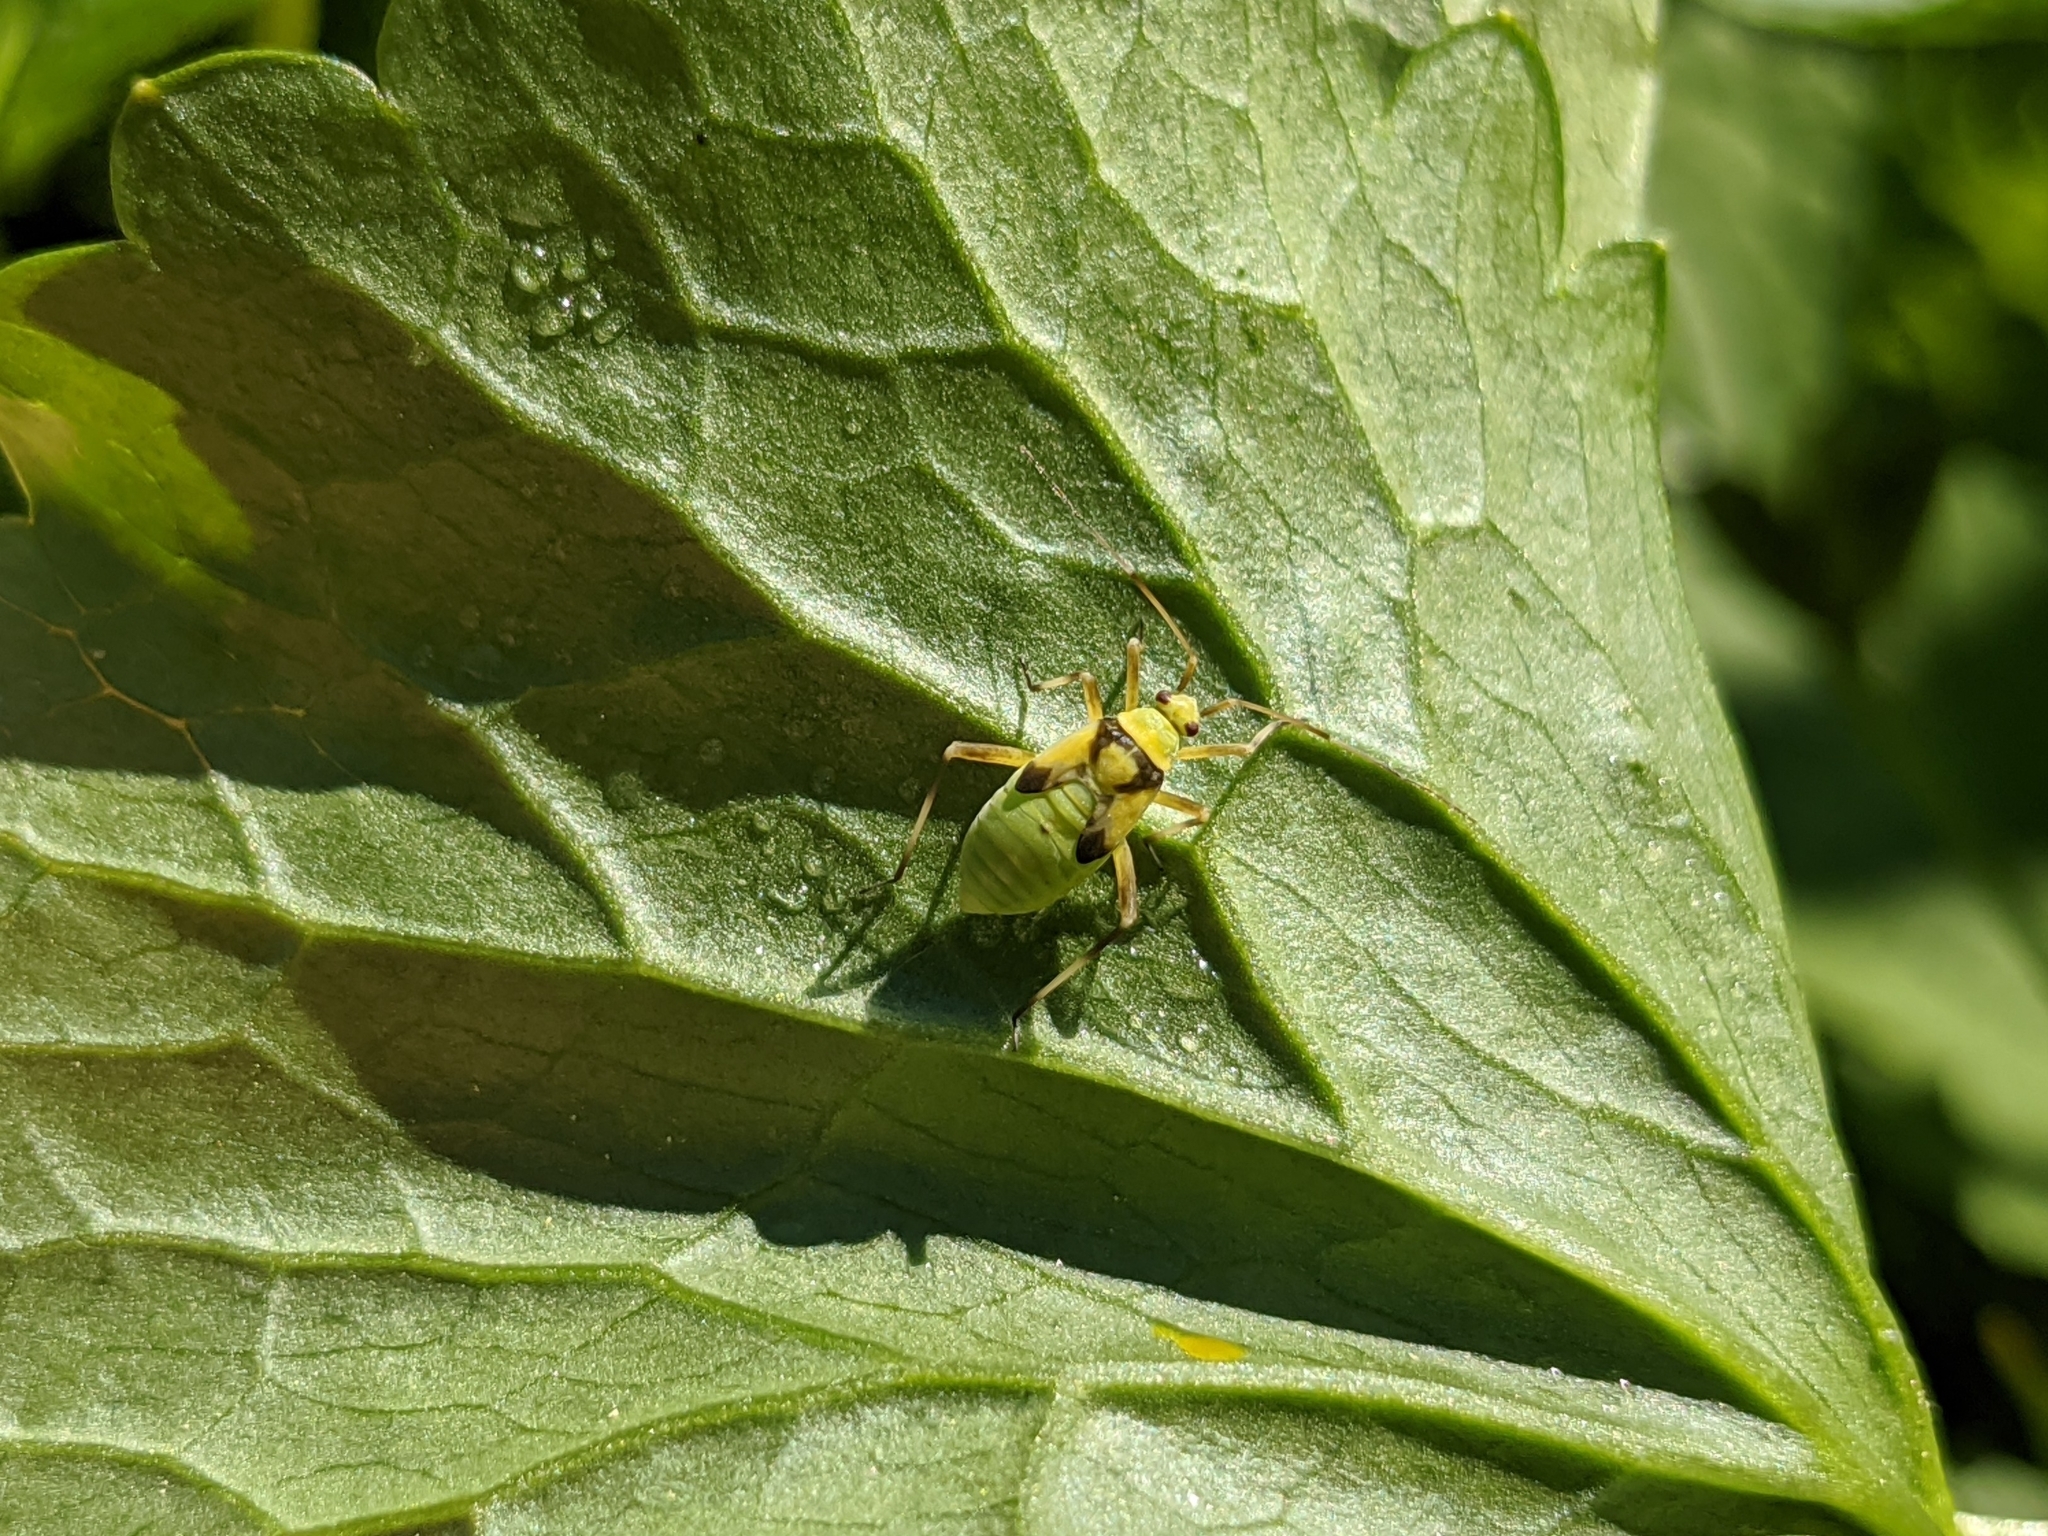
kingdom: Animalia
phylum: Arthropoda
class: Insecta
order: Hemiptera
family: Miridae
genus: Calocoris
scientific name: Calocoris alpestris
